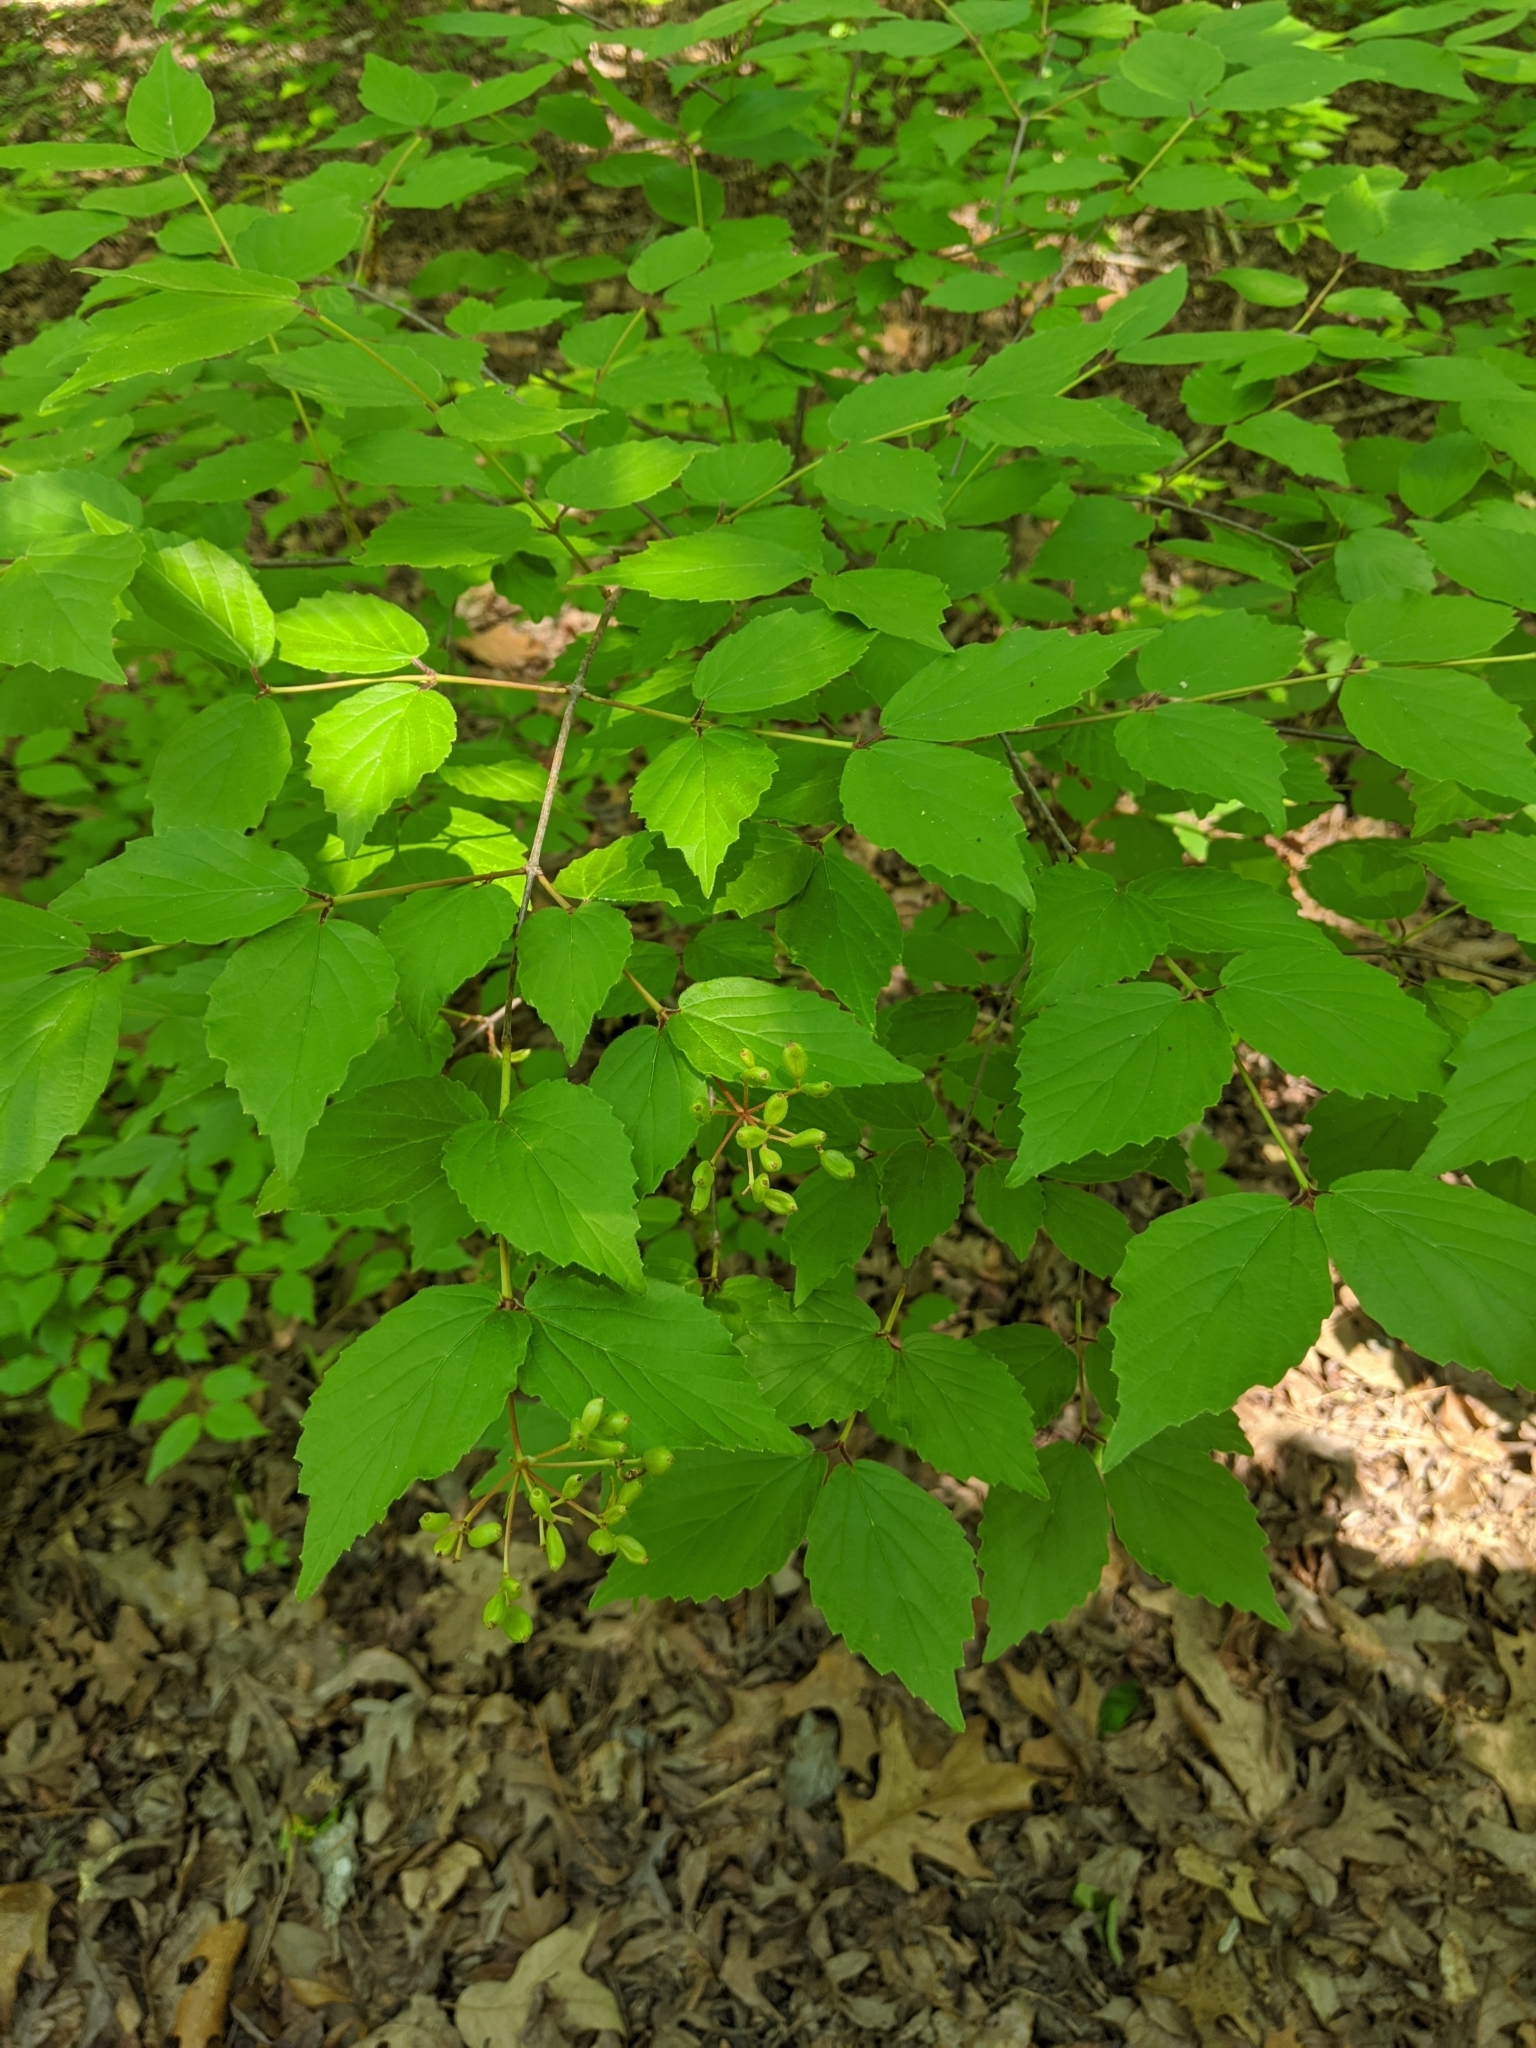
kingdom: Plantae
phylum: Tracheophyta
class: Magnoliopsida
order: Dipsacales
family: Viburnaceae
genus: Viburnum
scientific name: Viburnum rafinesqueanum
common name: Downy arrow-wood
